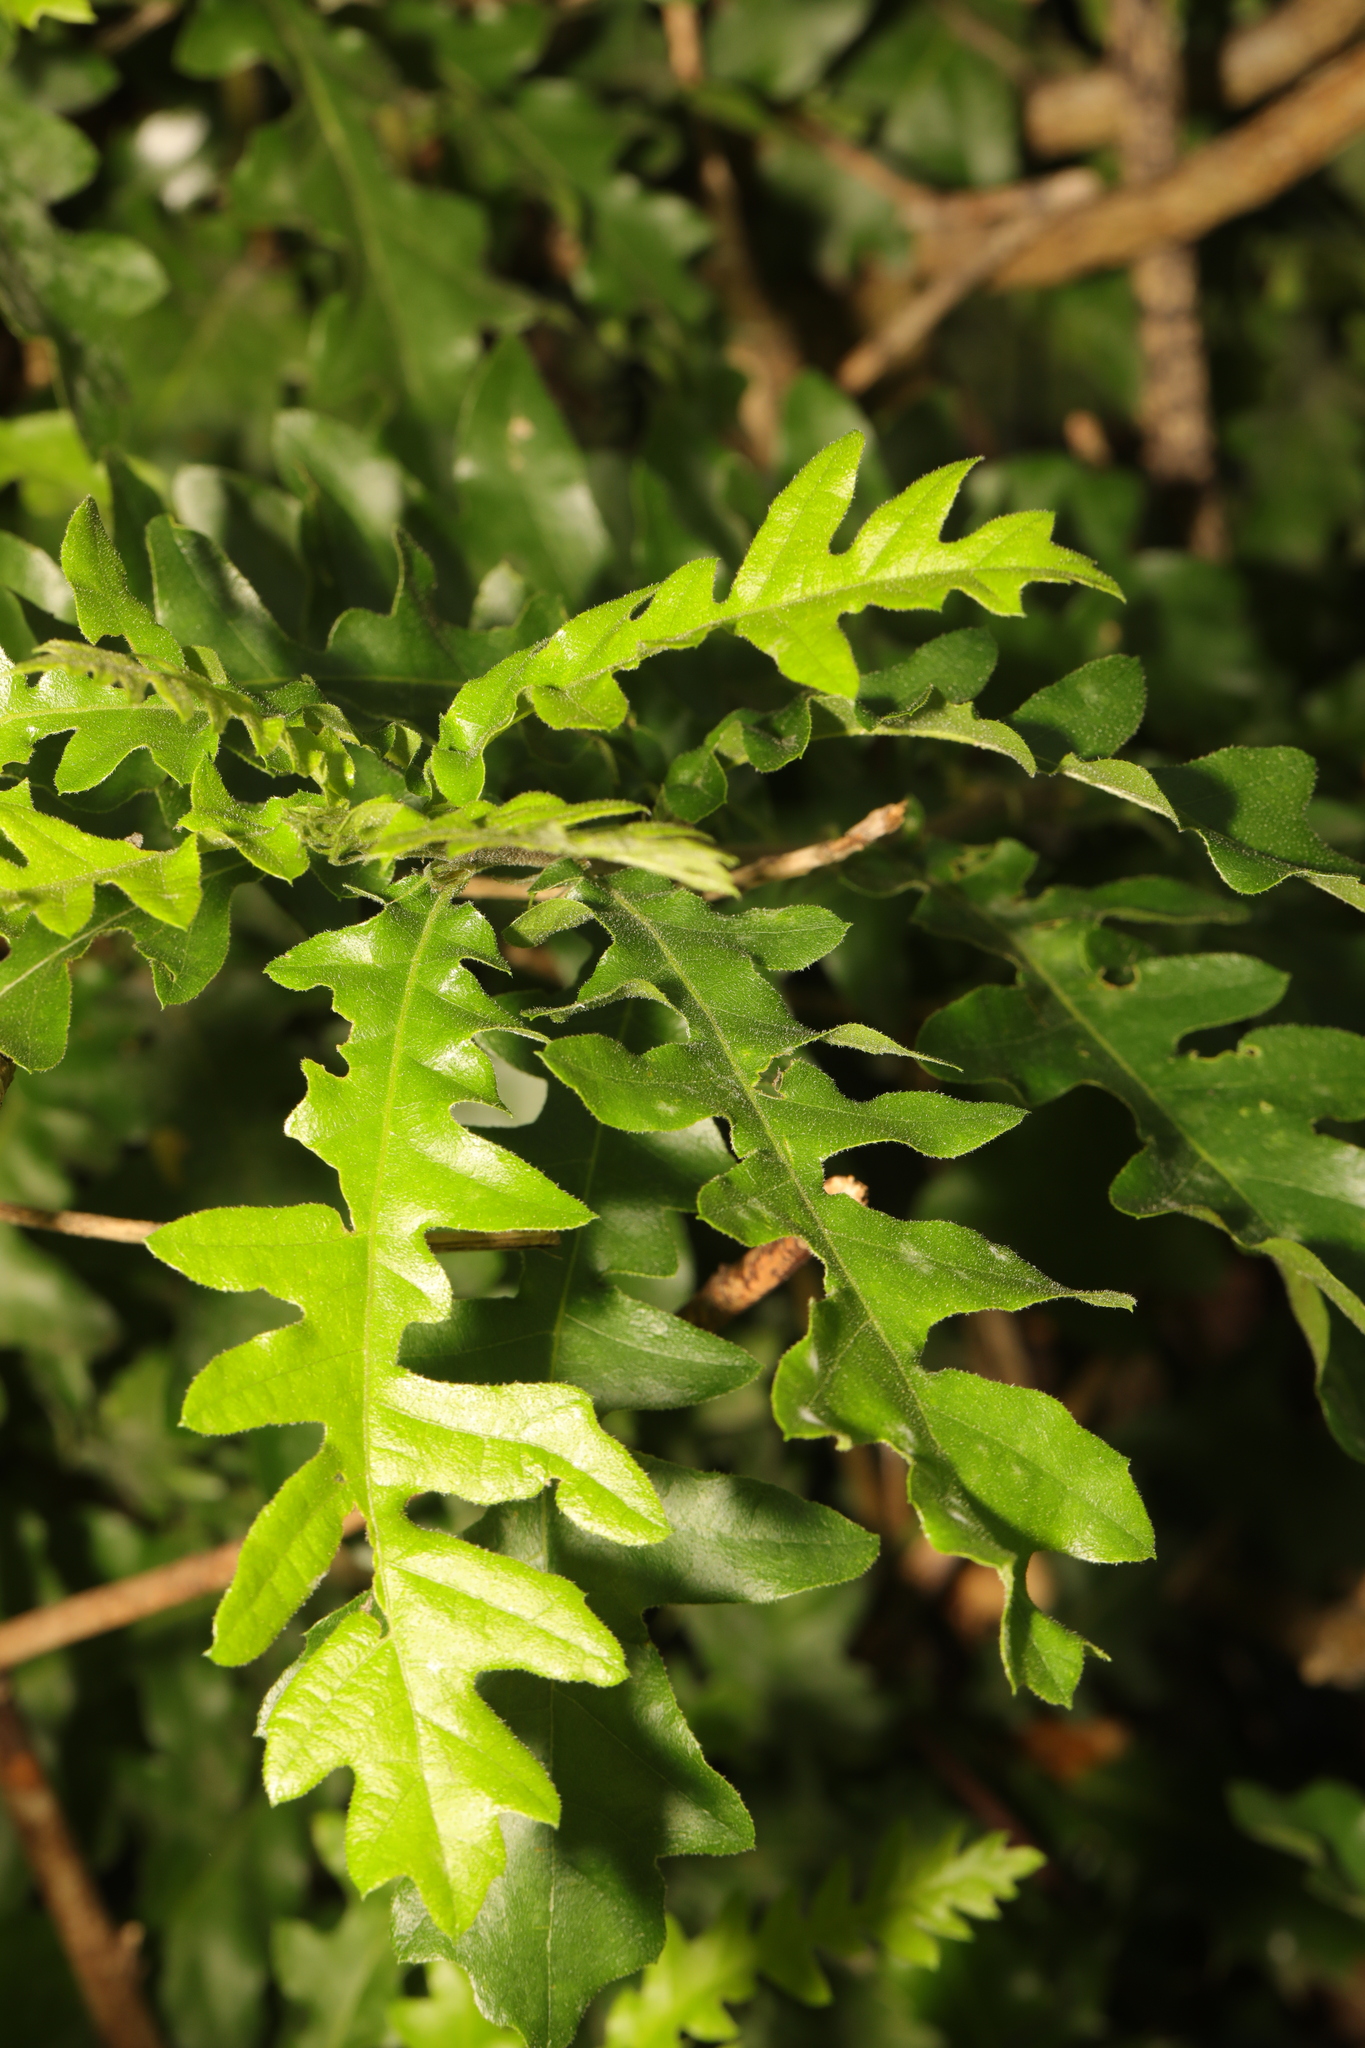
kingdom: Plantae
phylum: Tracheophyta
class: Magnoliopsida
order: Fagales
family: Fagaceae
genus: Quercus
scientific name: Quercus cerris
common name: Turkey oak
